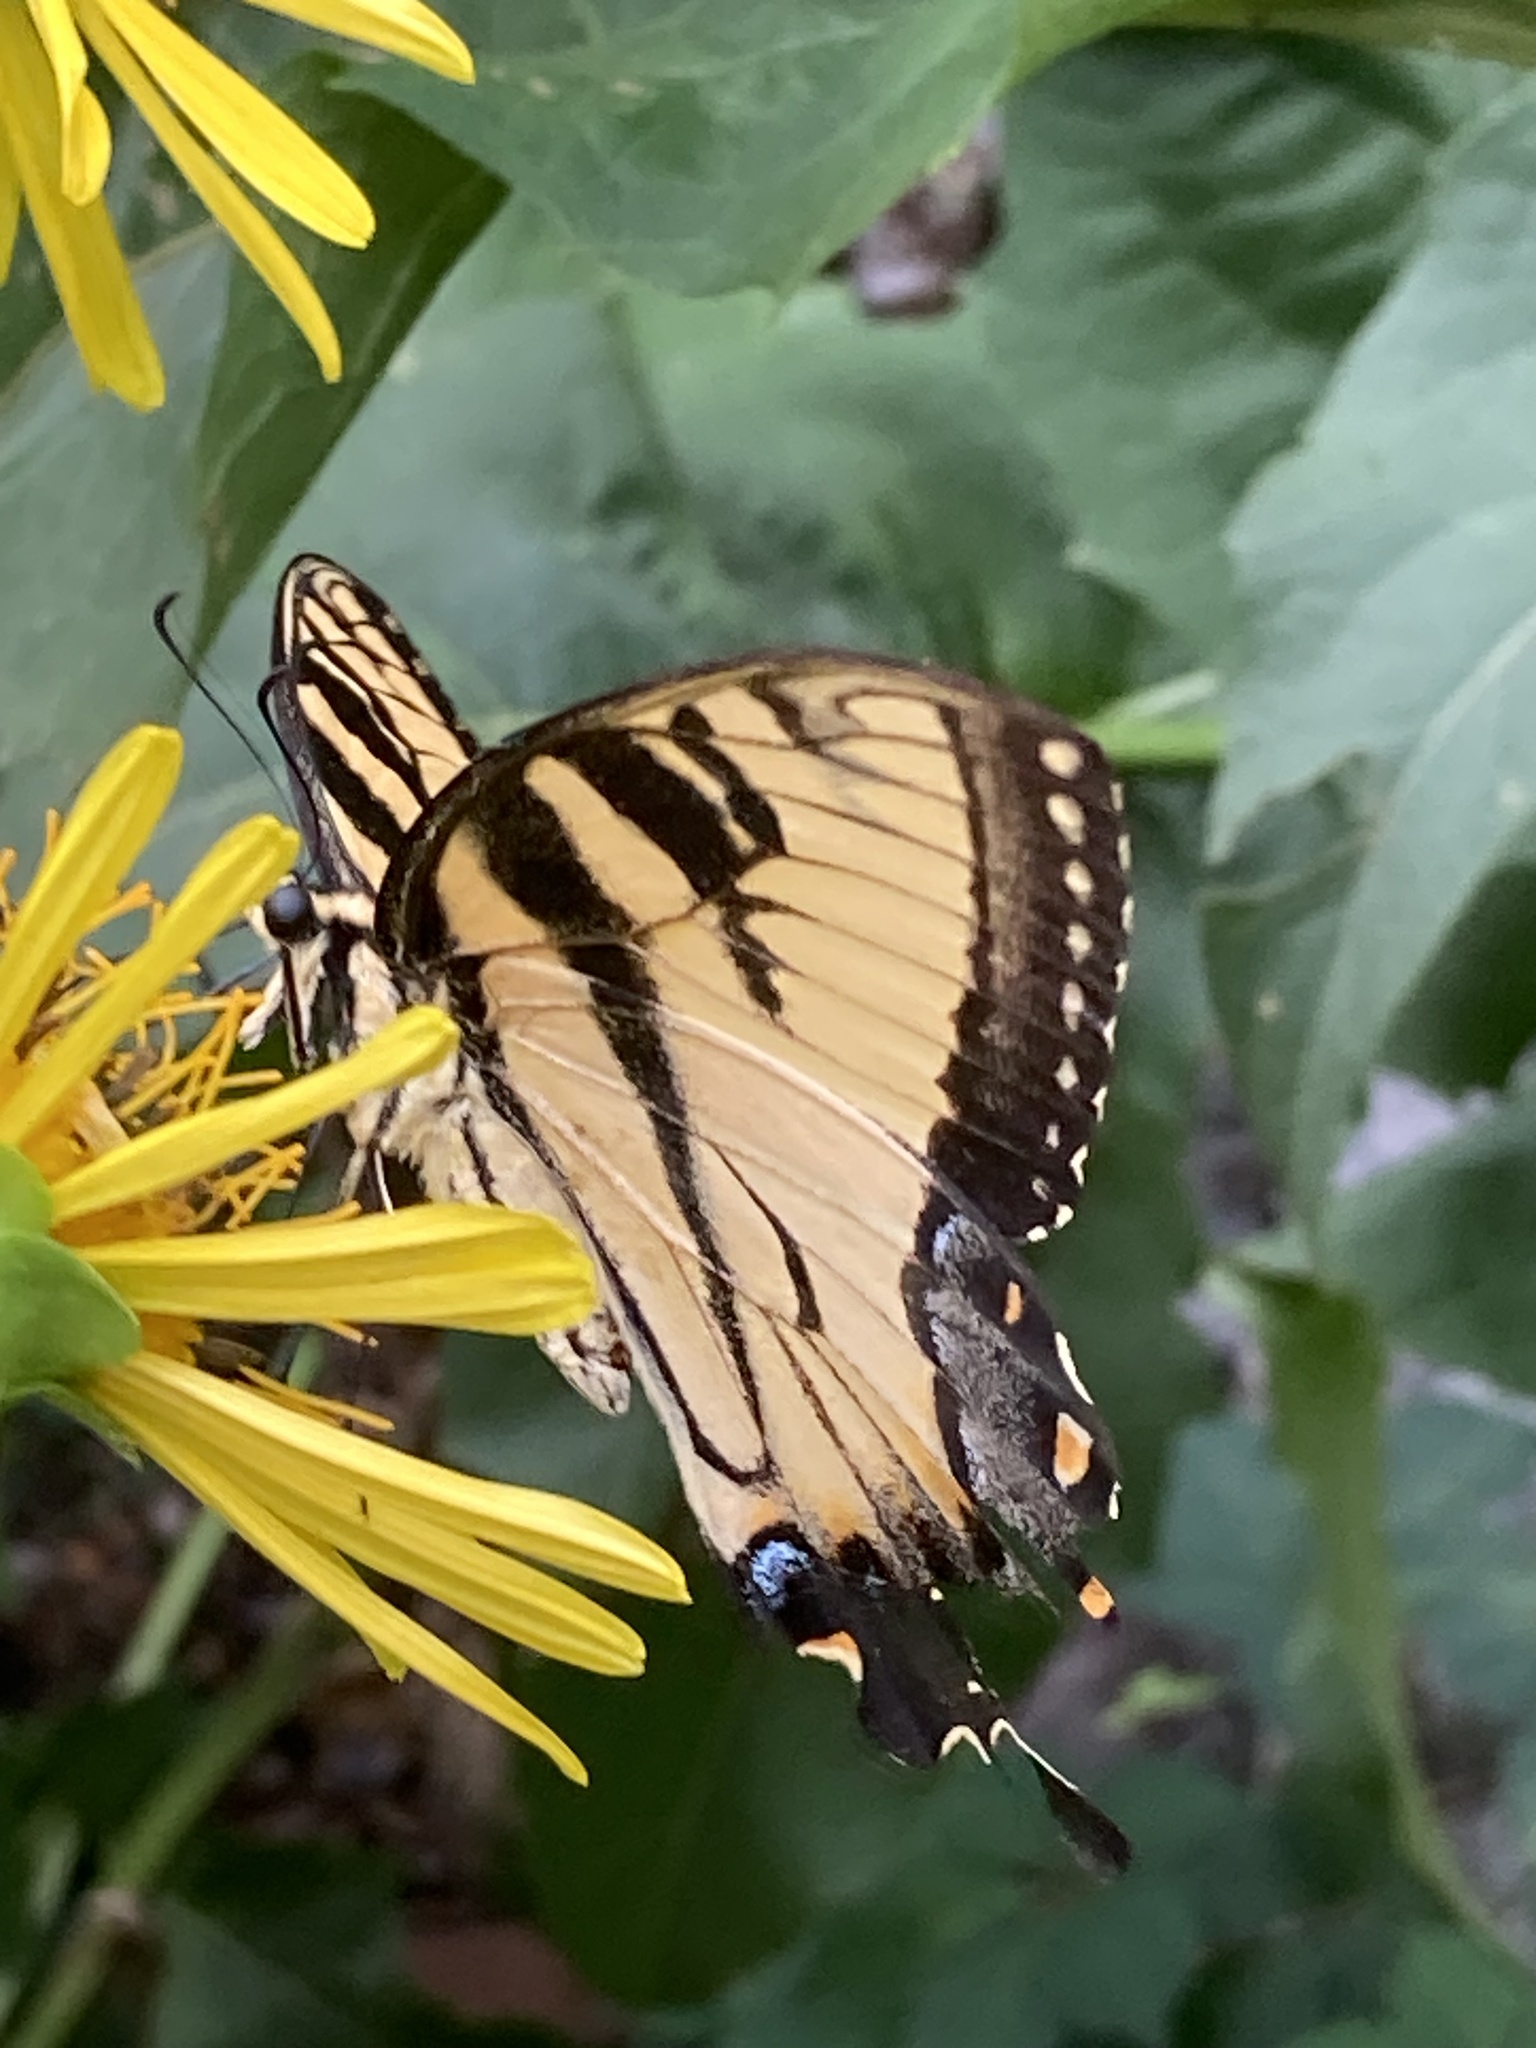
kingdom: Animalia
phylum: Arthropoda
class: Insecta
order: Lepidoptera
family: Papilionidae
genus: Papilio
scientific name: Papilio glaucus
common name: Tiger swallowtail
